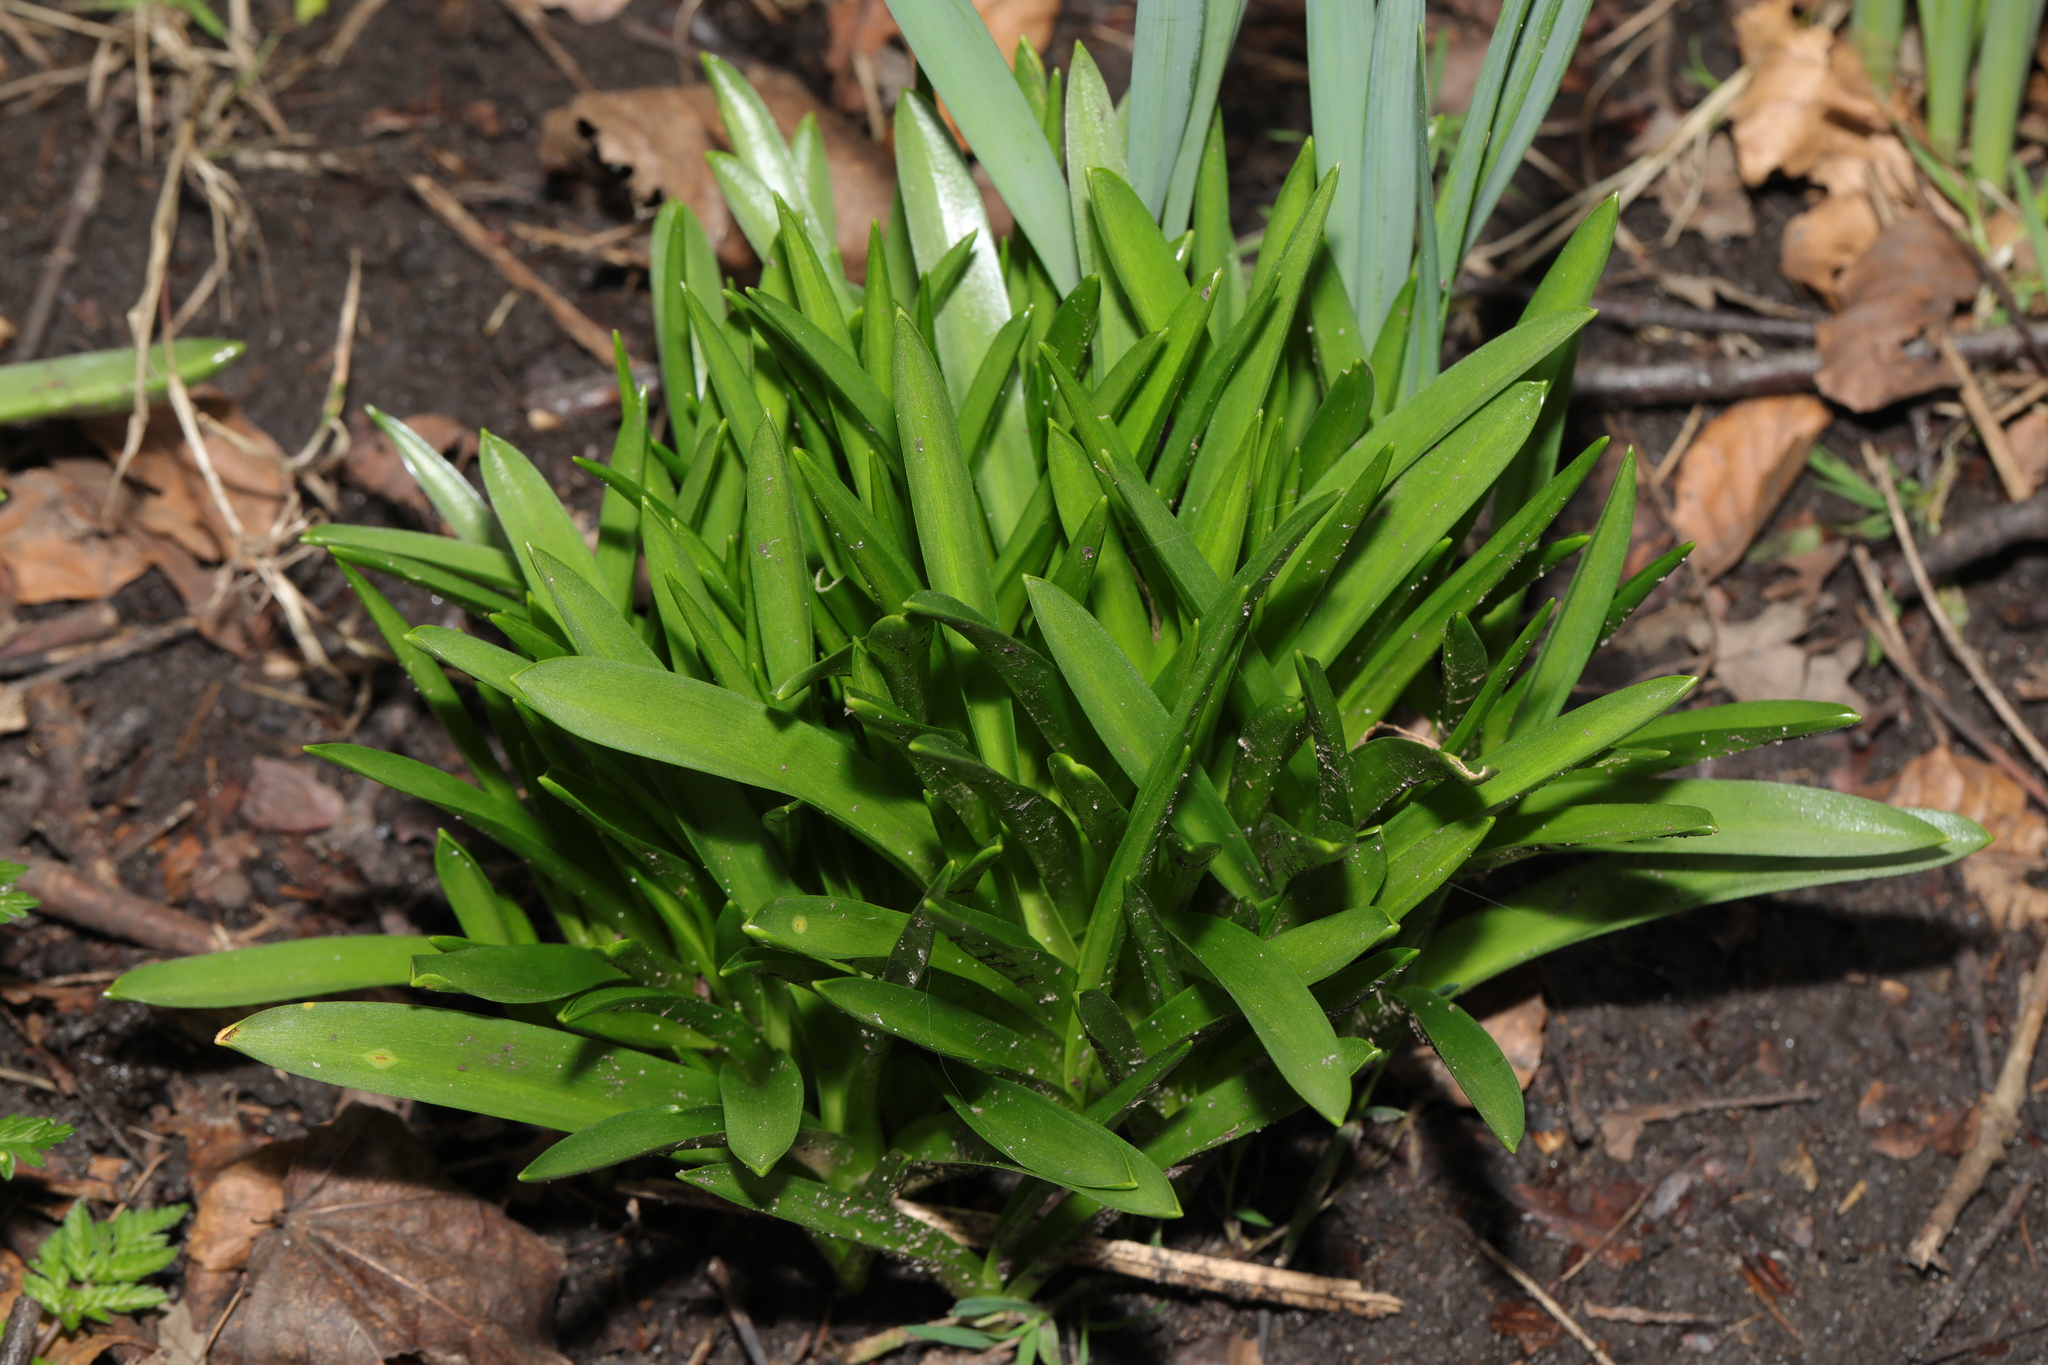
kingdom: Plantae
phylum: Tracheophyta
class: Liliopsida
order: Asparagales
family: Asparagaceae
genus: Hyacinthoides
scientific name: Hyacinthoides massartiana
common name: Hyacinthoides
